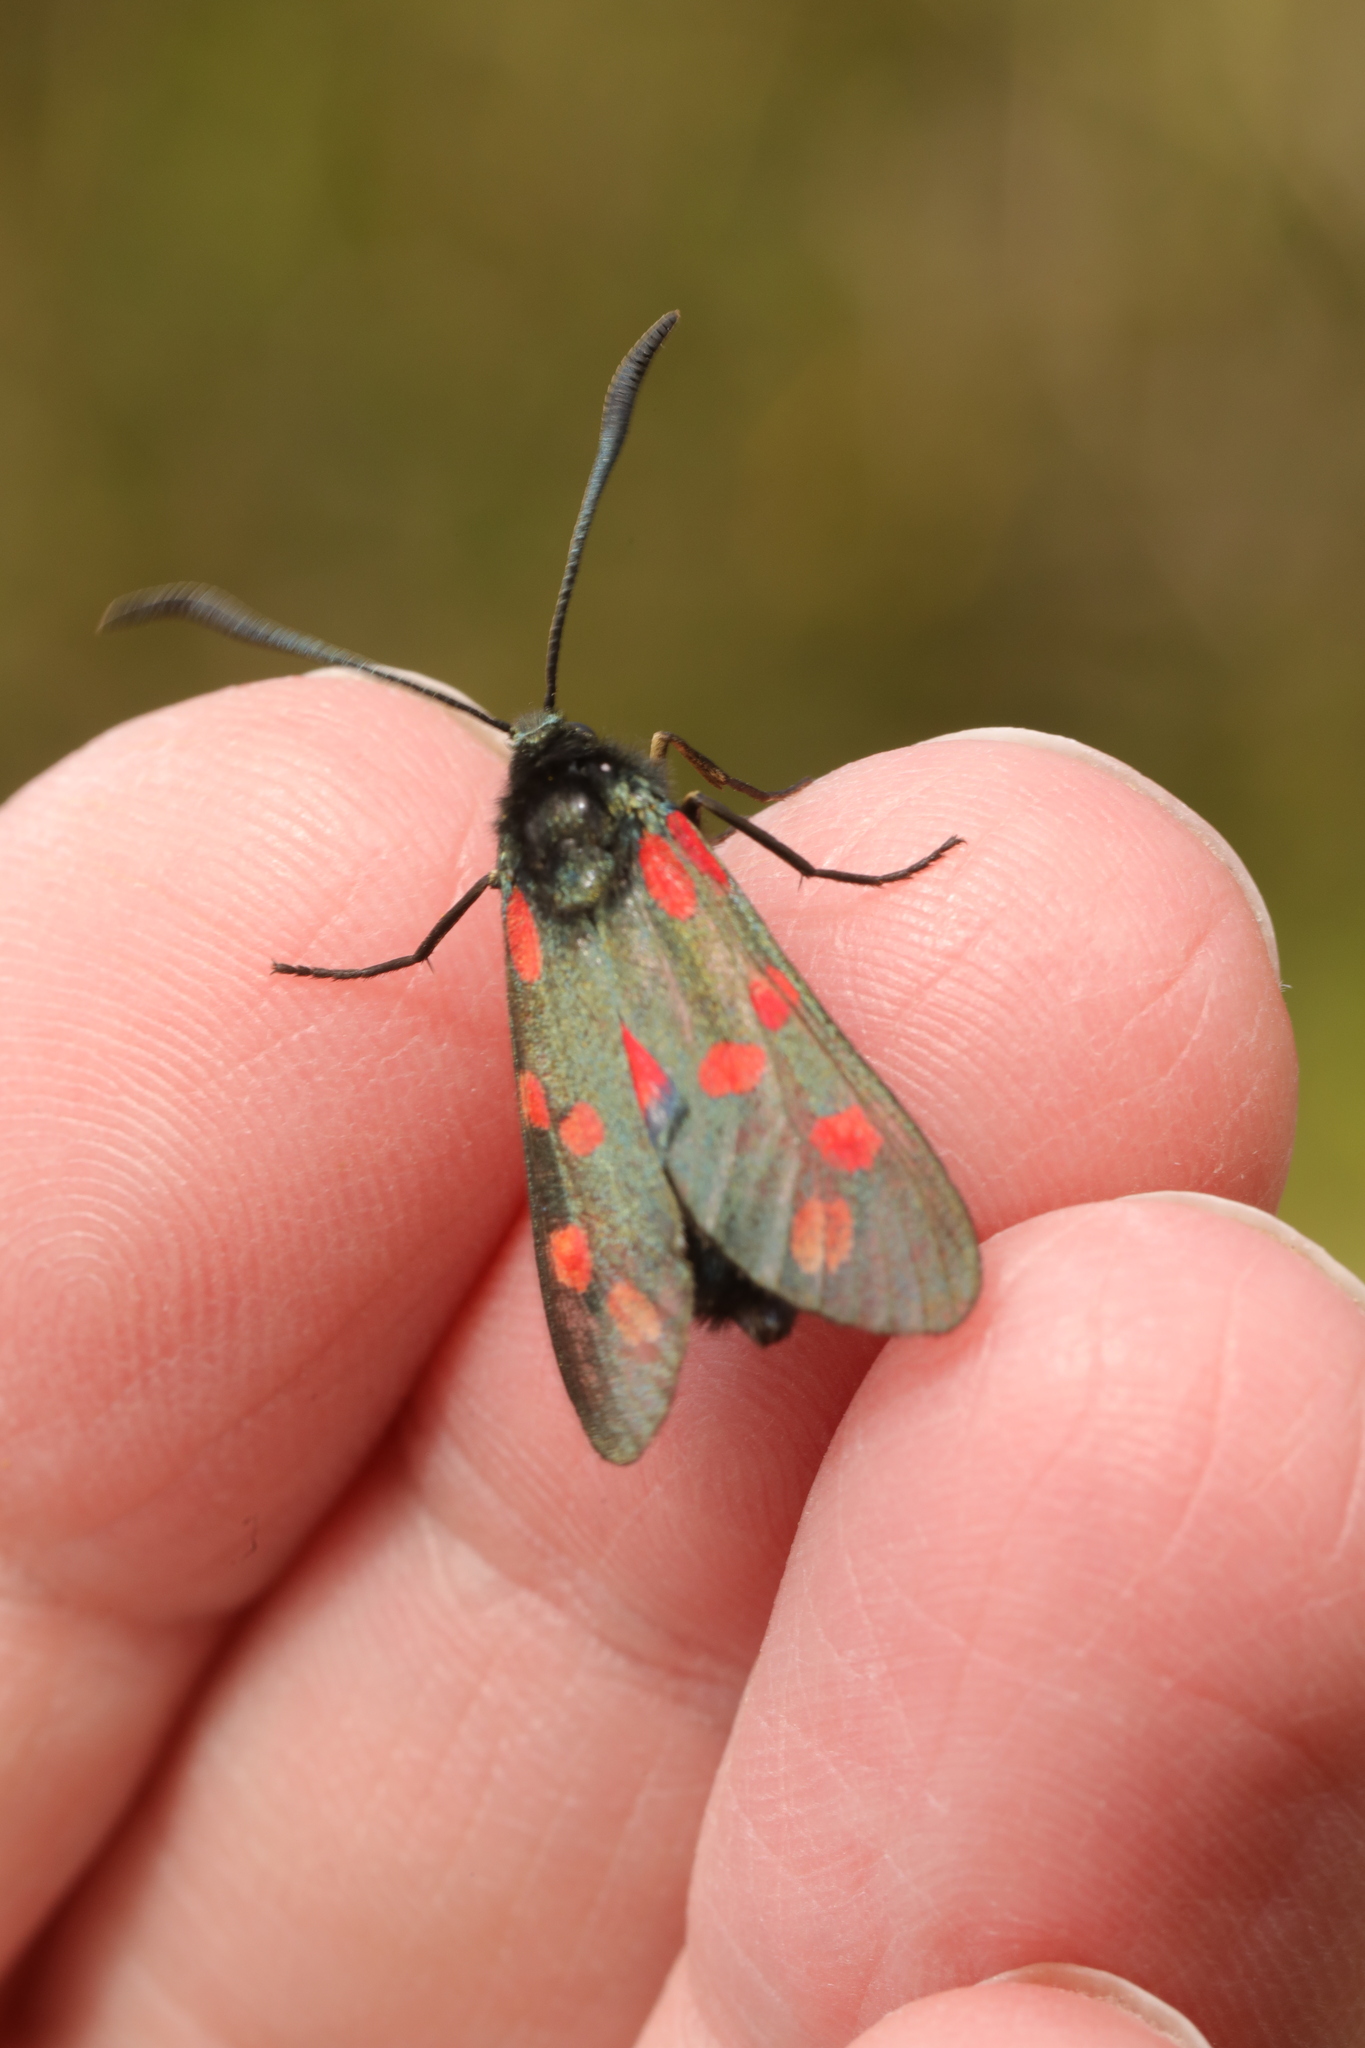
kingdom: Animalia
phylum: Arthropoda
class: Insecta
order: Lepidoptera
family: Zygaenidae
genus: Zygaena
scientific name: Zygaena filipendulae
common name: Six-spot burnet
